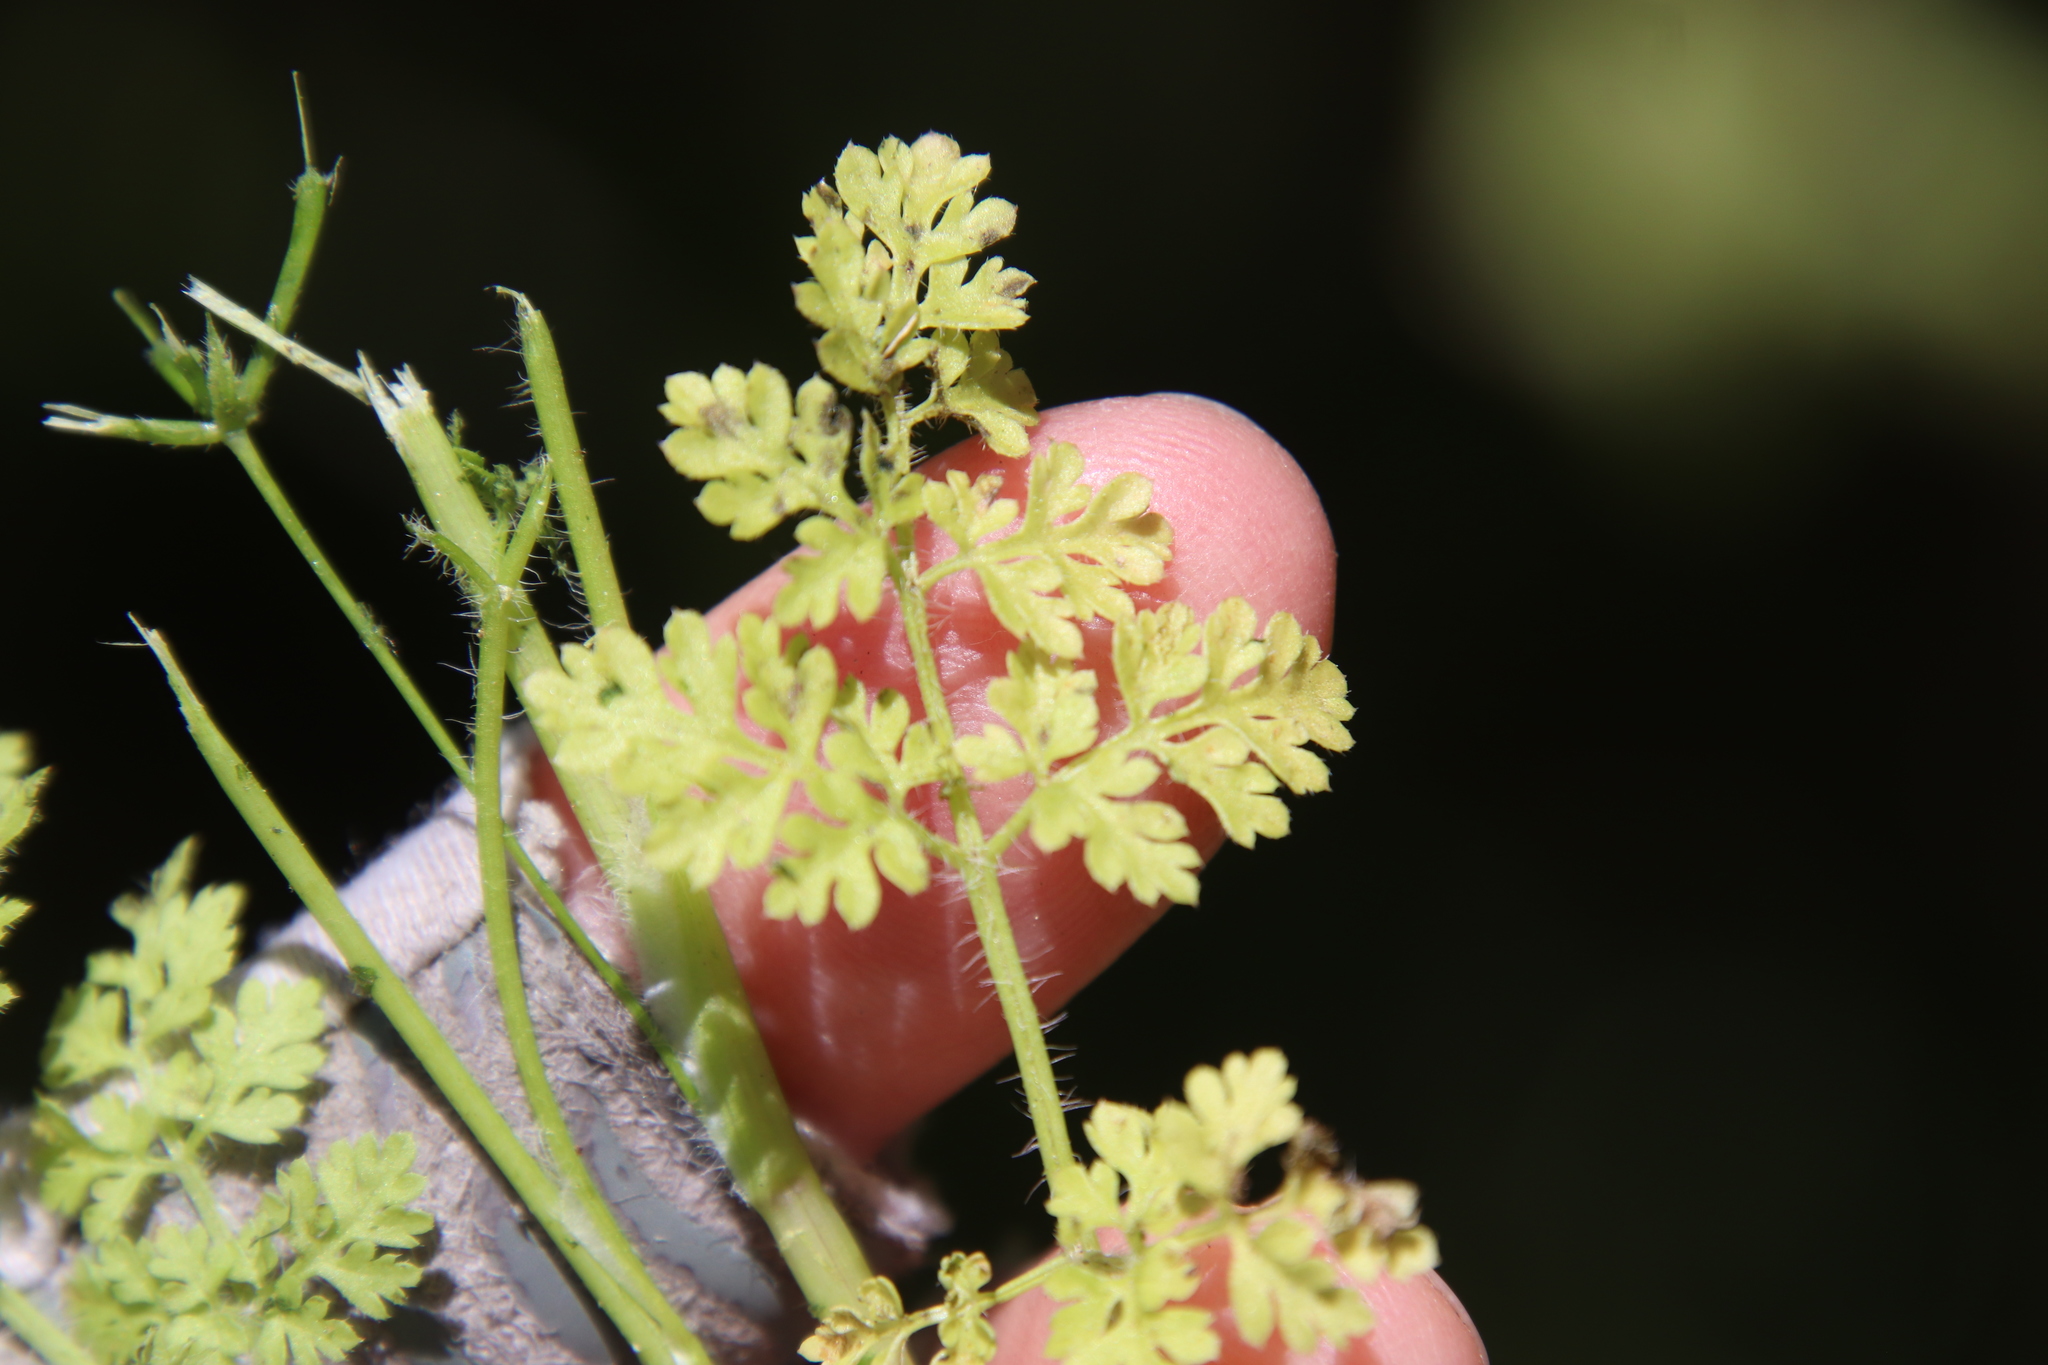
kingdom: Plantae
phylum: Tracheophyta
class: Magnoliopsida
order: Apiales
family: Apiaceae
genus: Anthriscus
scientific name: Anthriscus caucalis
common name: Bur chervil
